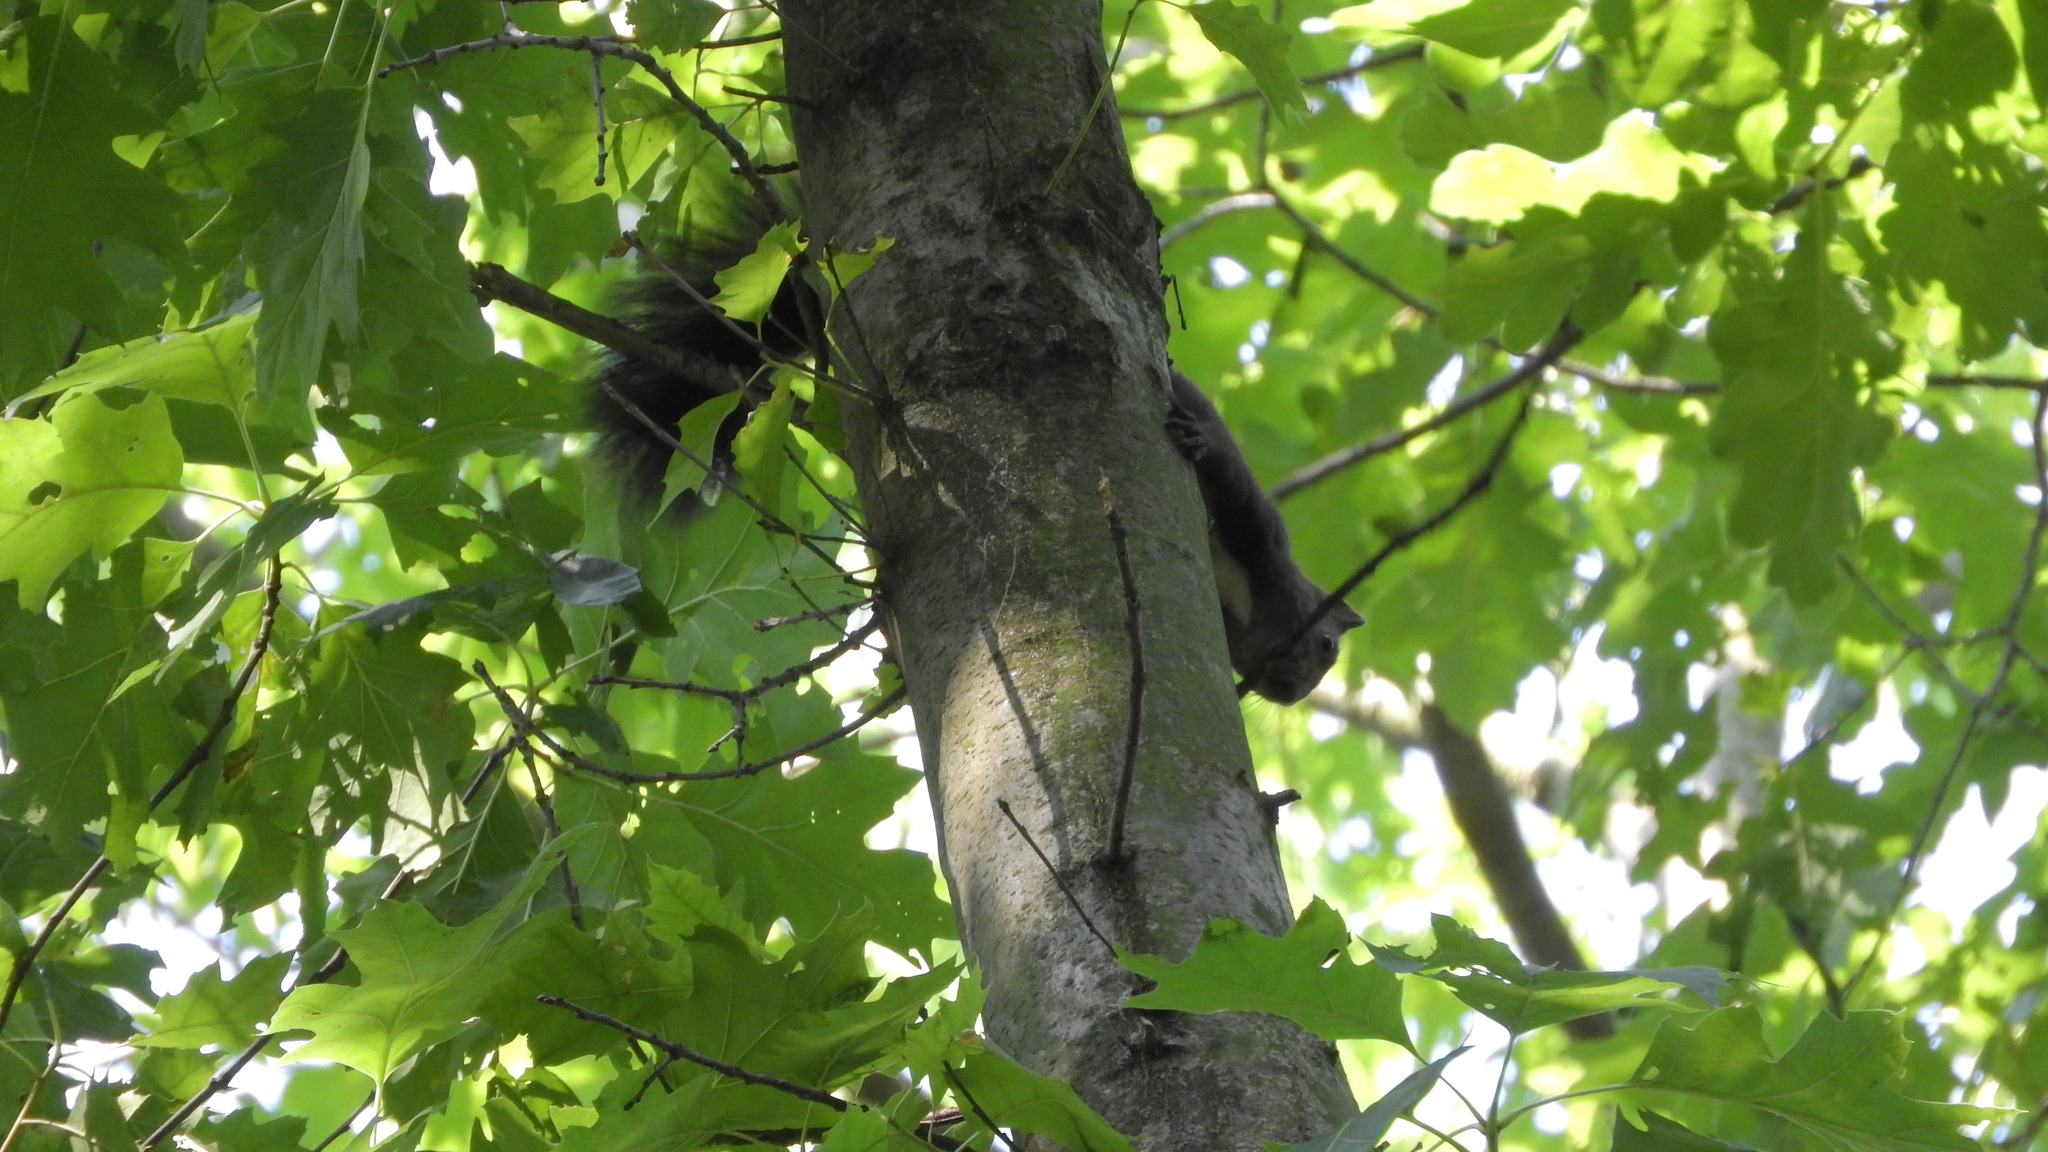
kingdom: Animalia
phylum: Chordata
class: Mammalia
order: Rodentia
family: Sciuridae
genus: Sciurus
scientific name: Sciurus vulgaris
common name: Eurasian red squirrel
